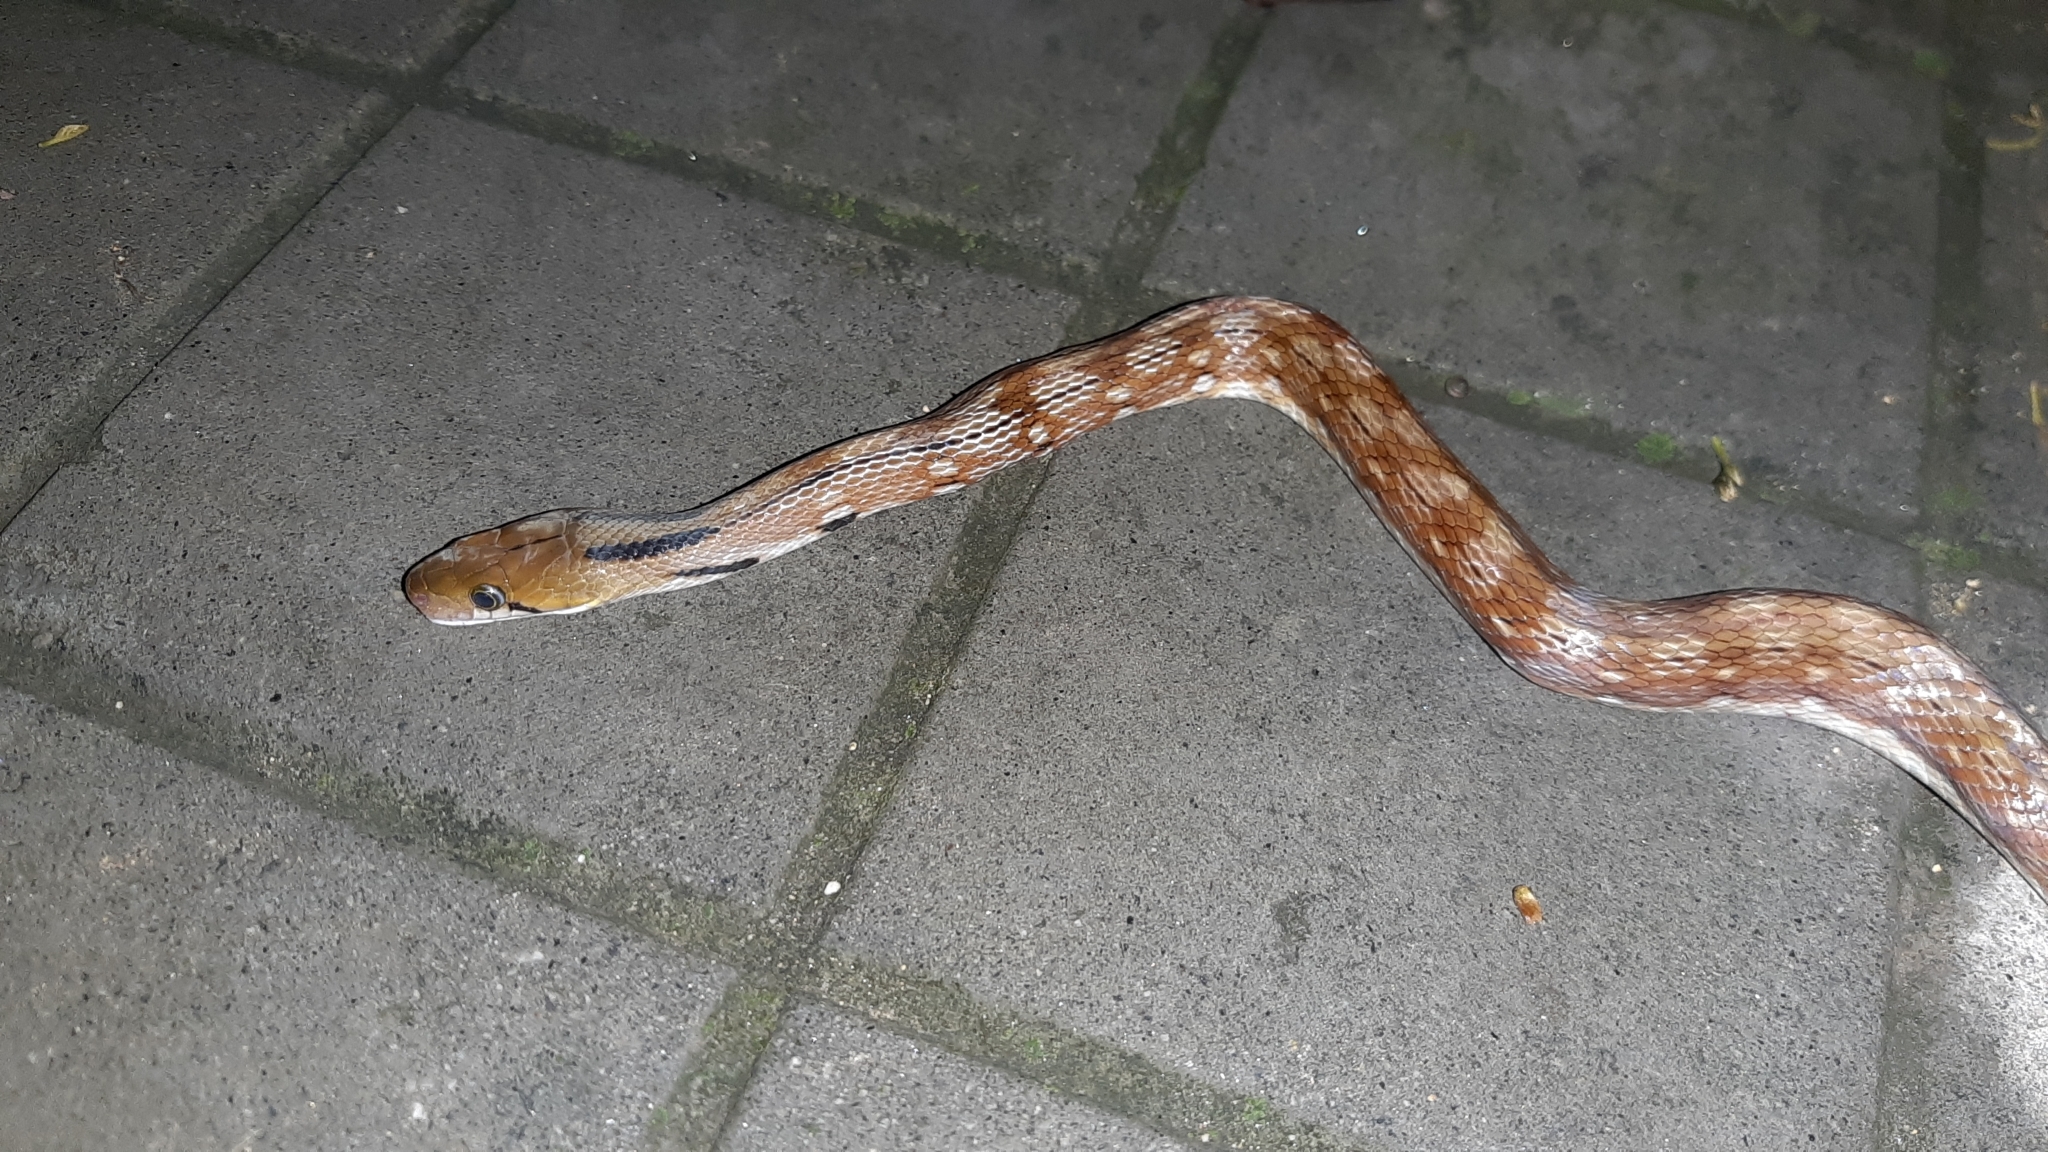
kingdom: Animalia
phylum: Chordata
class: Squamata
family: Colubridae
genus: Coelognathus
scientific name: Coelognathus helena
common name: Trinket snake
